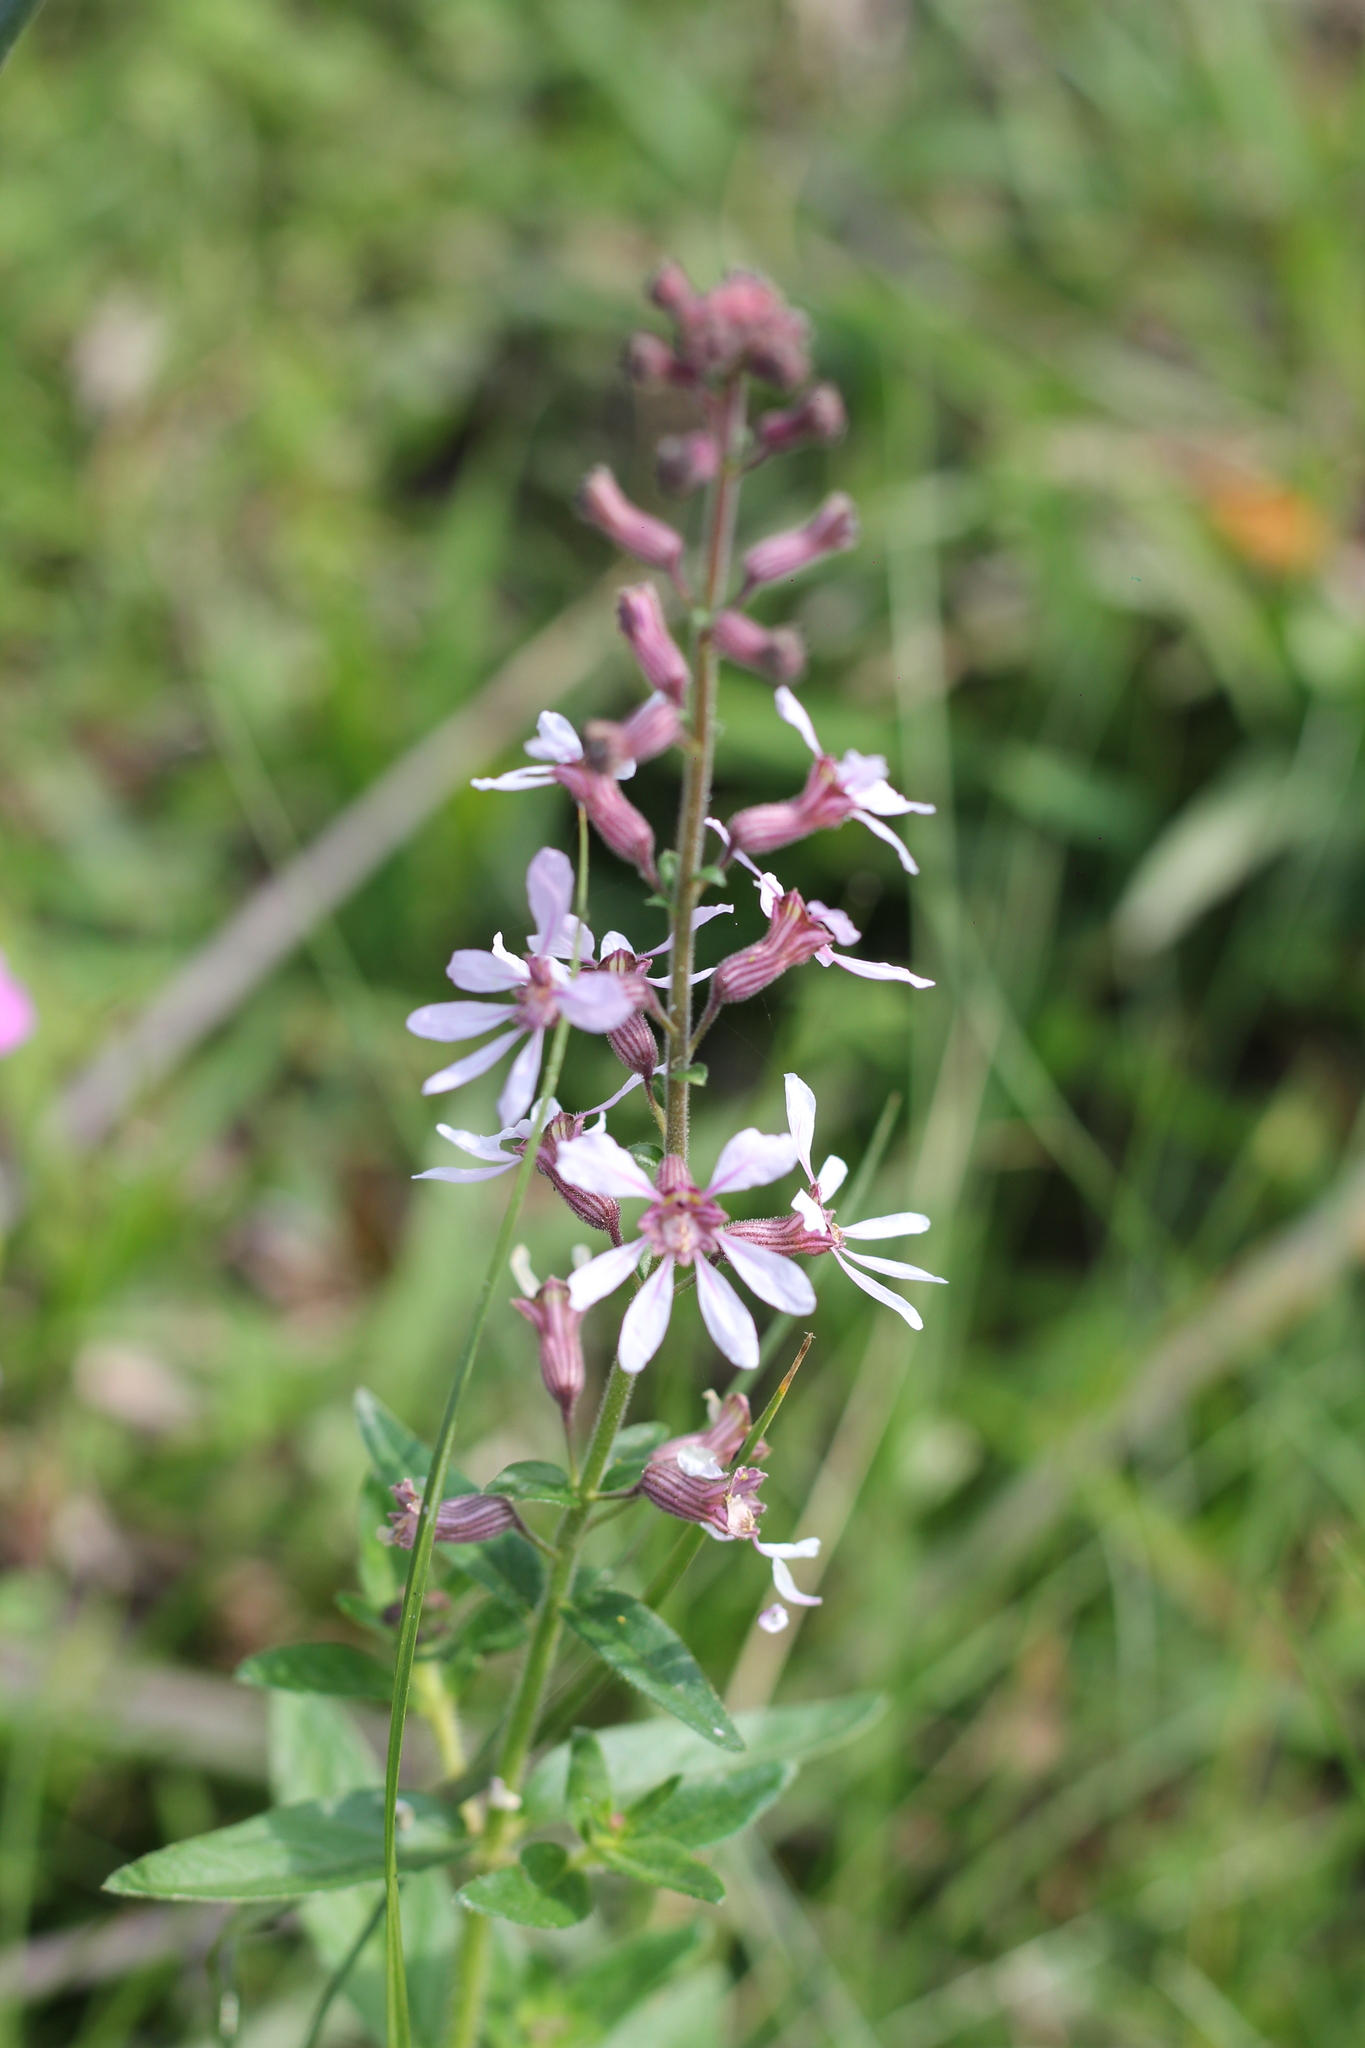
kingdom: Plantae
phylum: Tracheophyta
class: Magnoliopsida
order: Myrtales
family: Lythraceae
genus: Cuphea
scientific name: Cuphea racemosa
